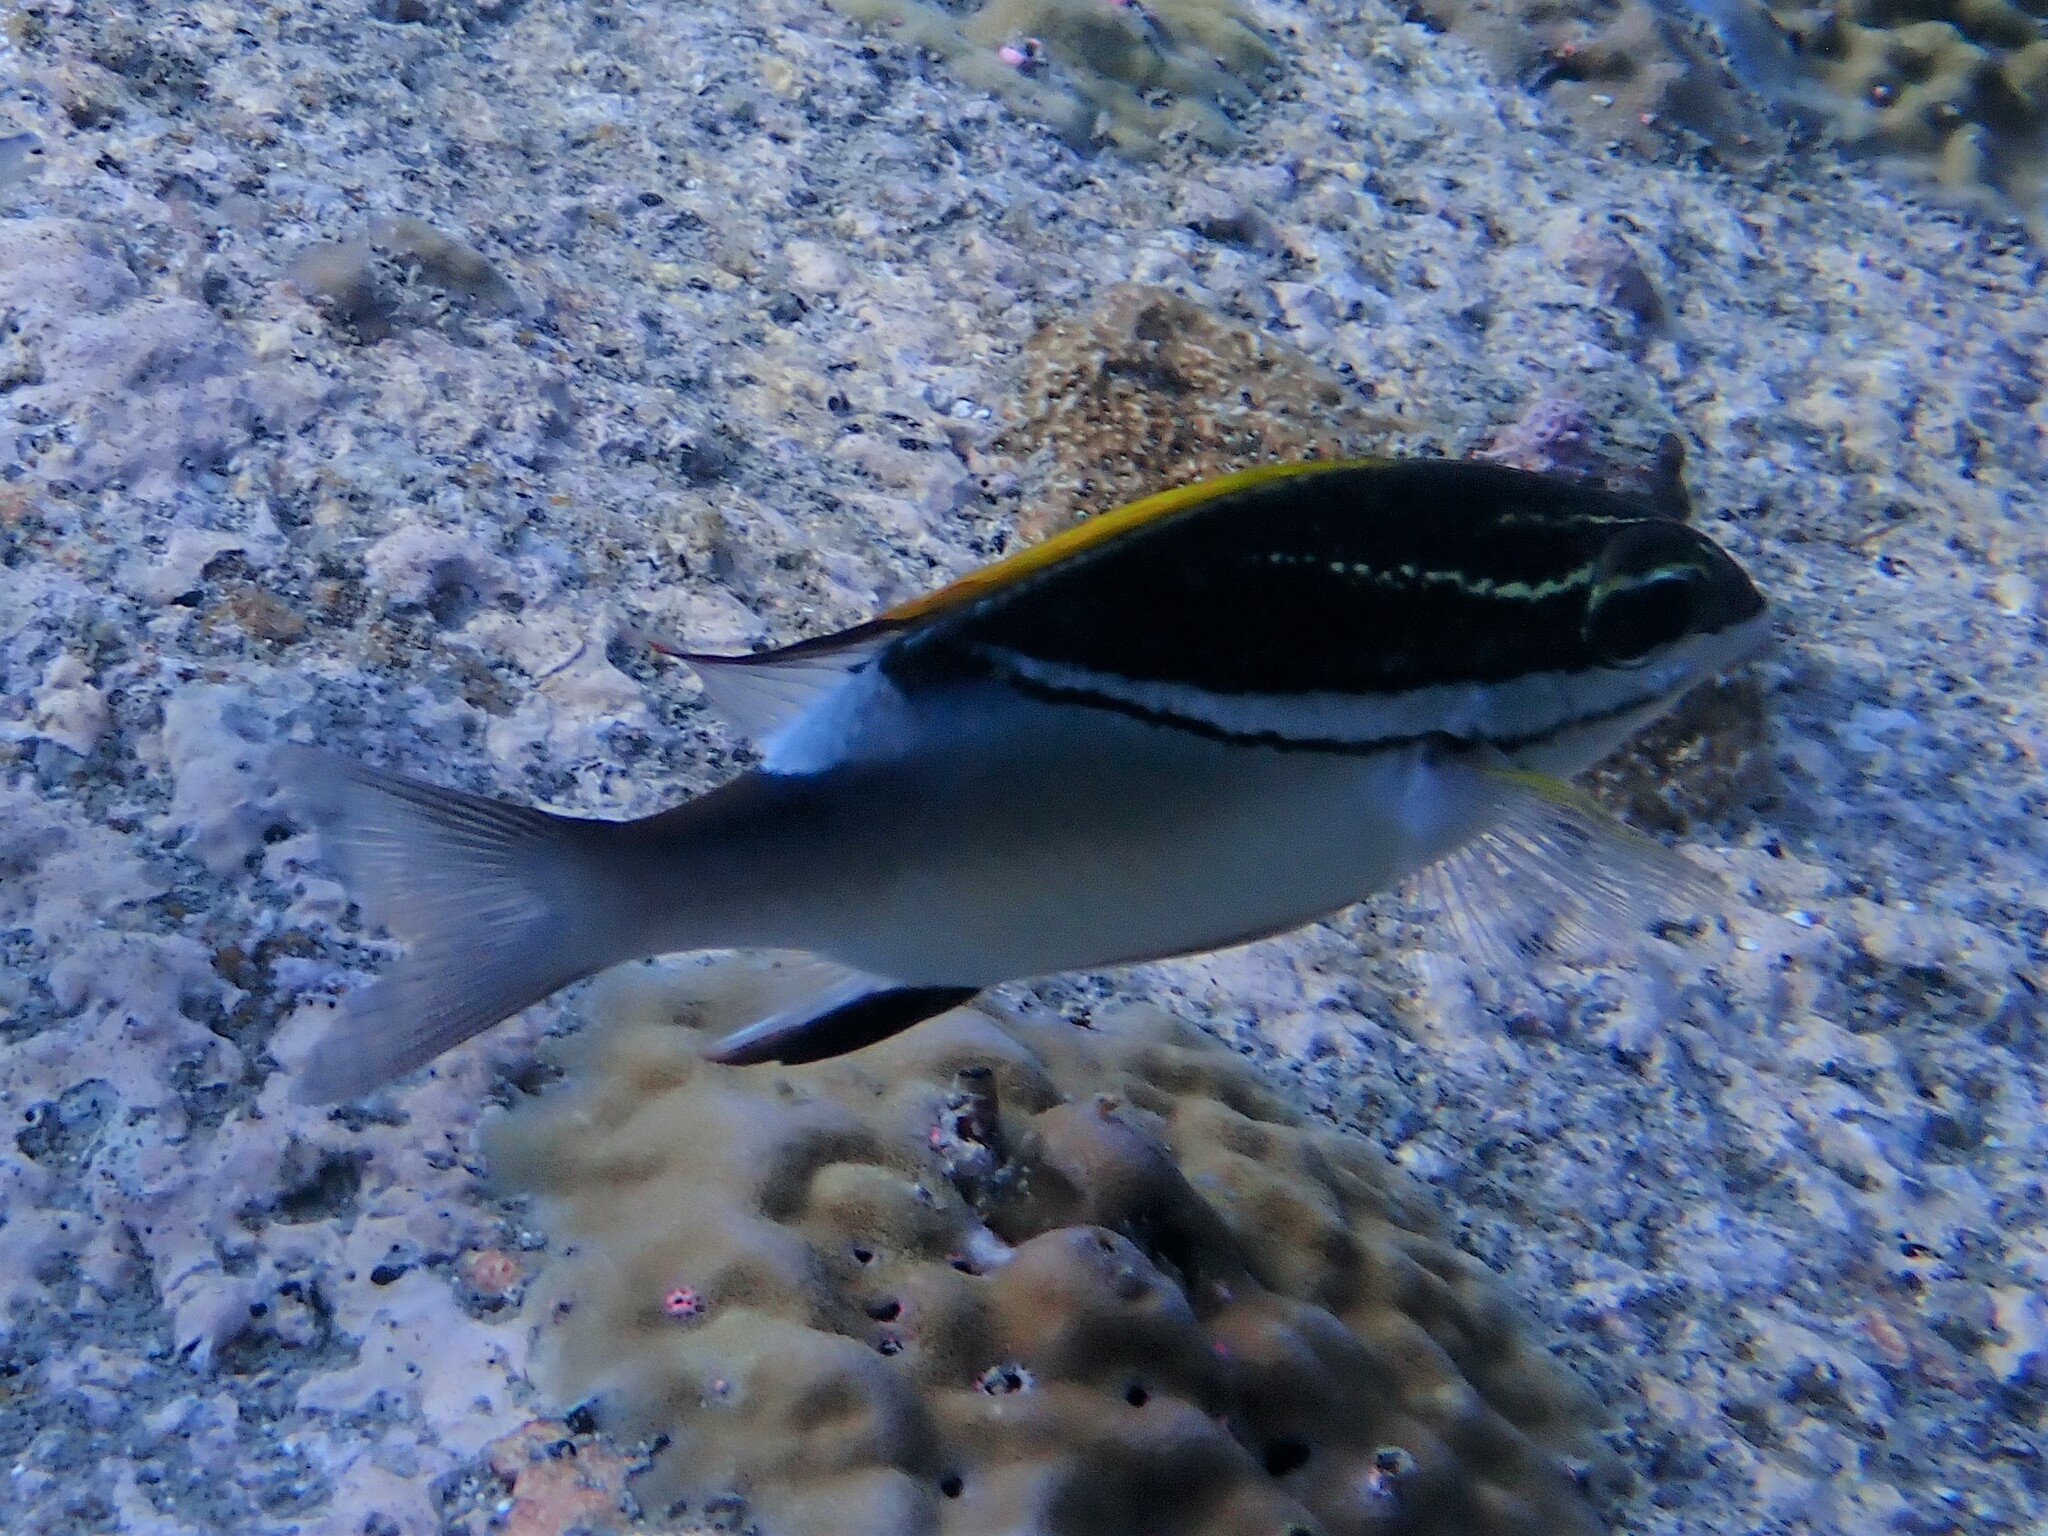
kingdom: Animalia
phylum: Chordata
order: Perciformes
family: Nemipteridae
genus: Scolopsis
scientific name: Scolopsis bilineata
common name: Two-lined monocle bream
